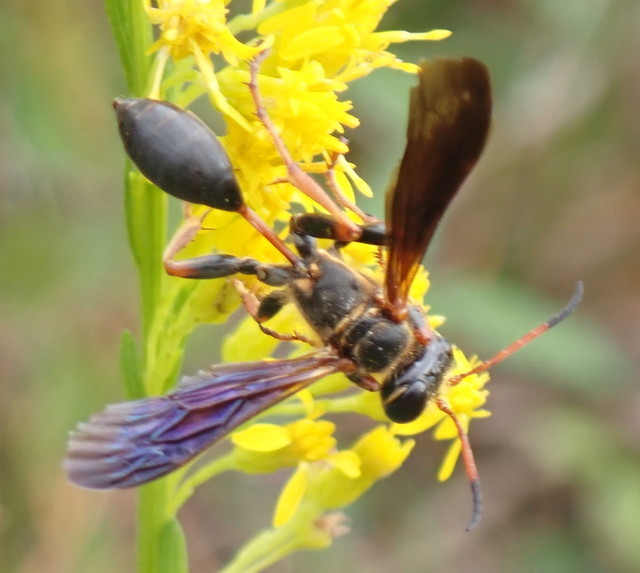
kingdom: Animalia
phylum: Arthropoda
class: Insecta
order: Hymenoptera
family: Sphecidae
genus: Isodontia
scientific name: Isodontia exornata
